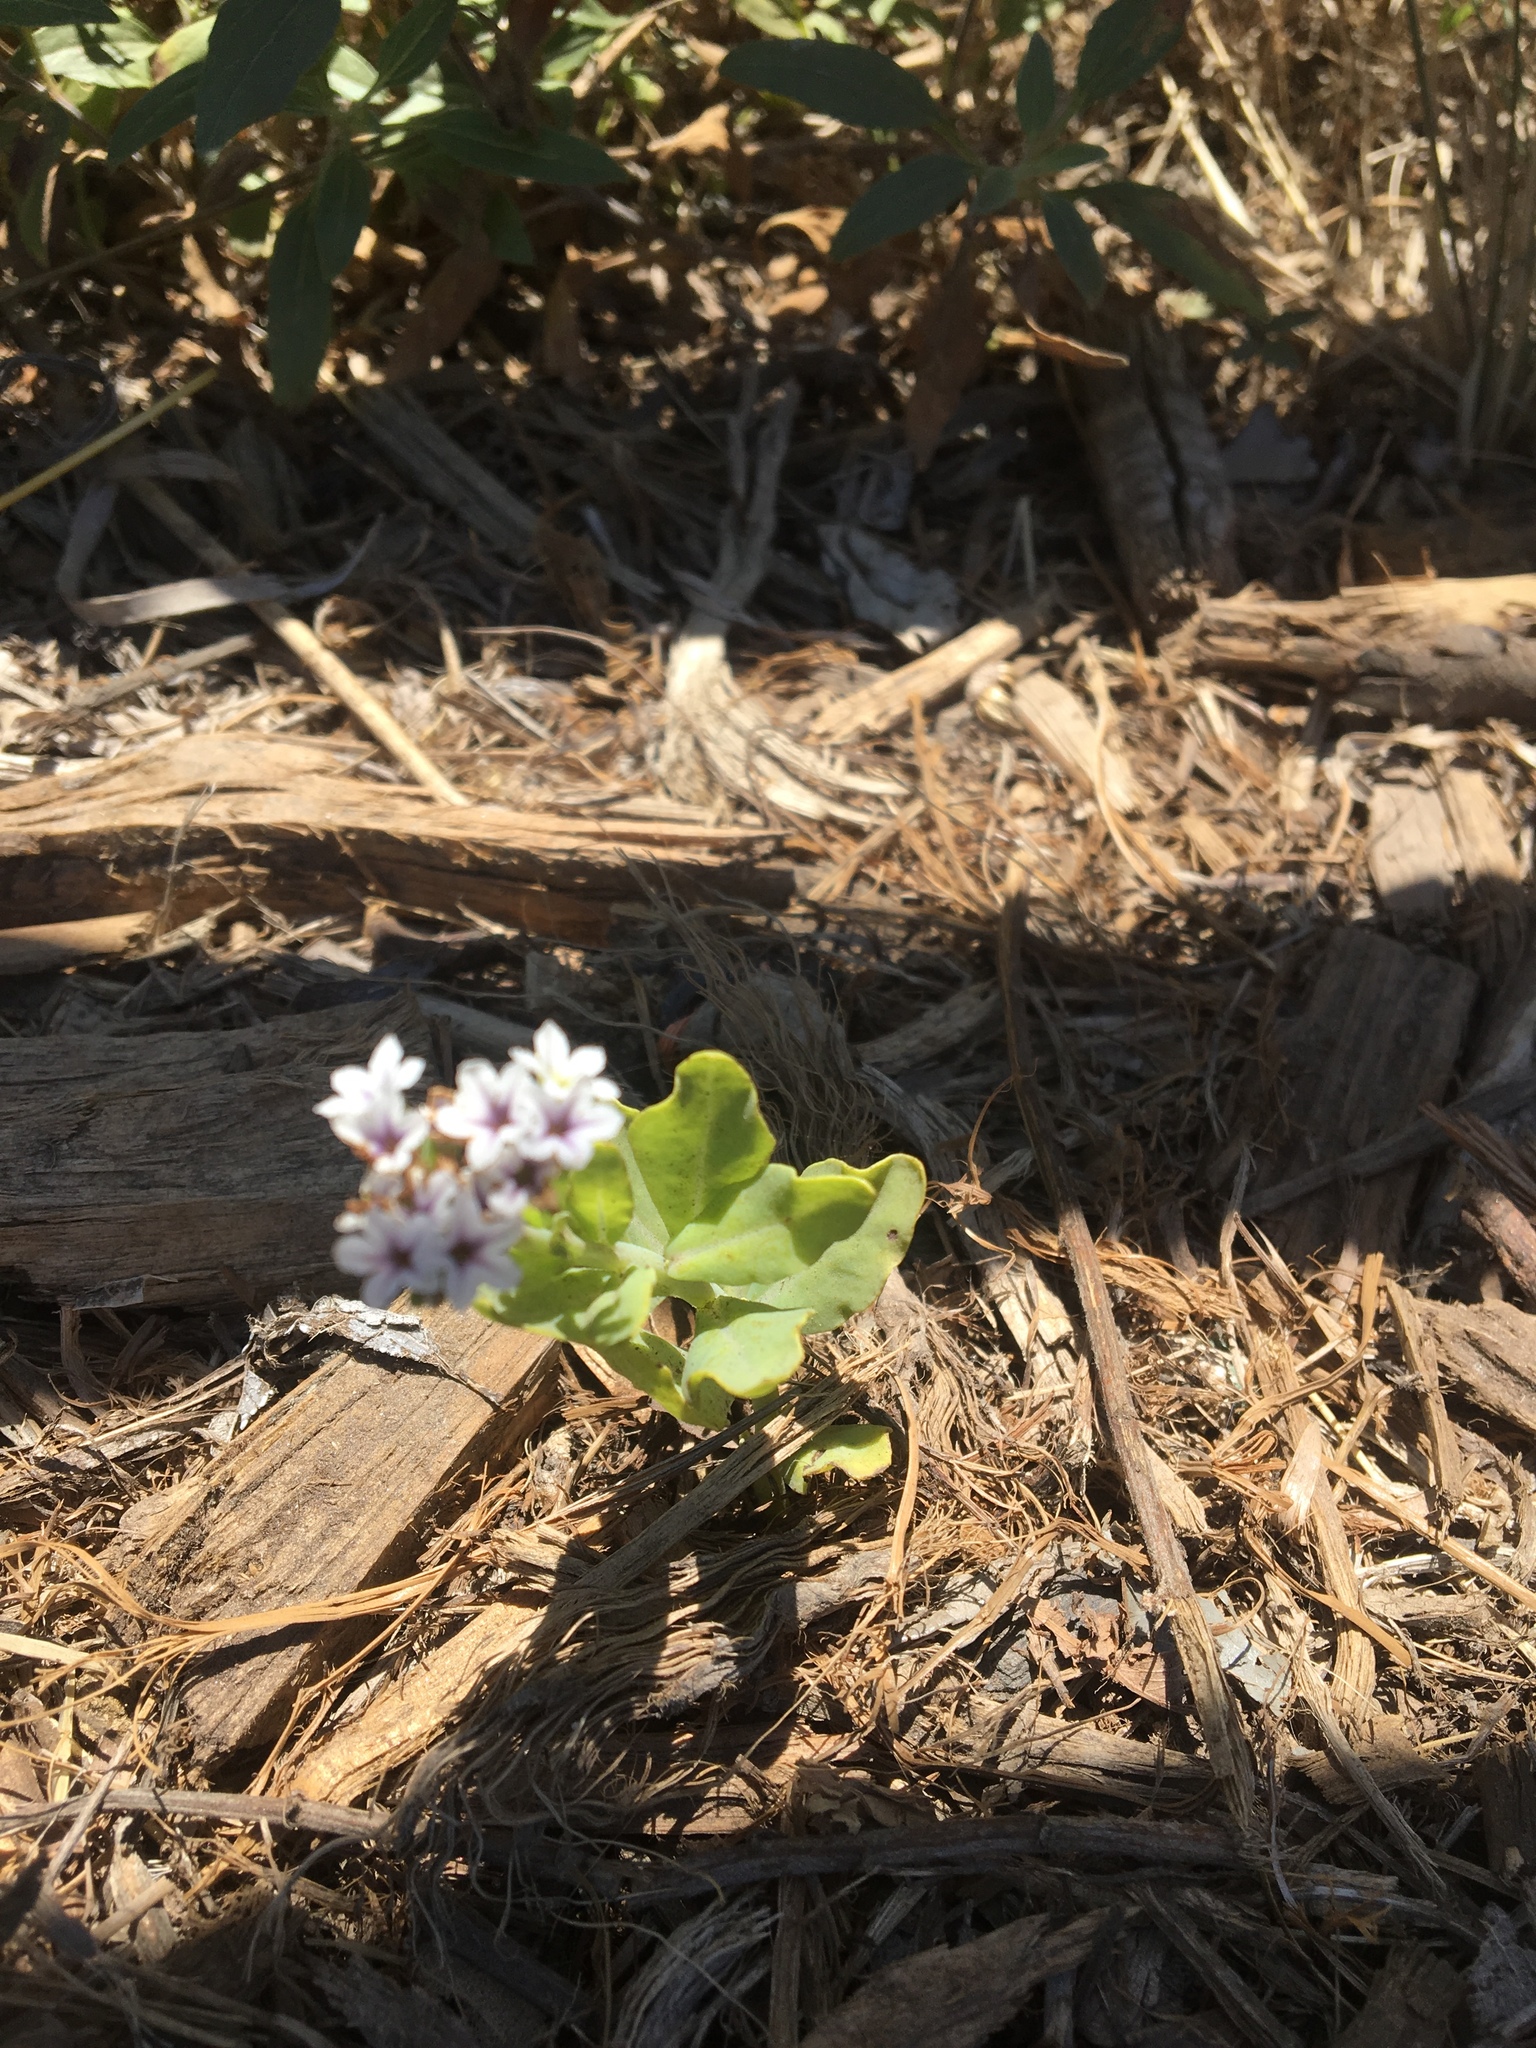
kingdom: Plantae
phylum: Tracheophyta
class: Magnoliopsida
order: Boraginales
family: Heliotropiaceae
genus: Heliotropium
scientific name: Heliotropium curassavicum
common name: Seaside heliotrope
